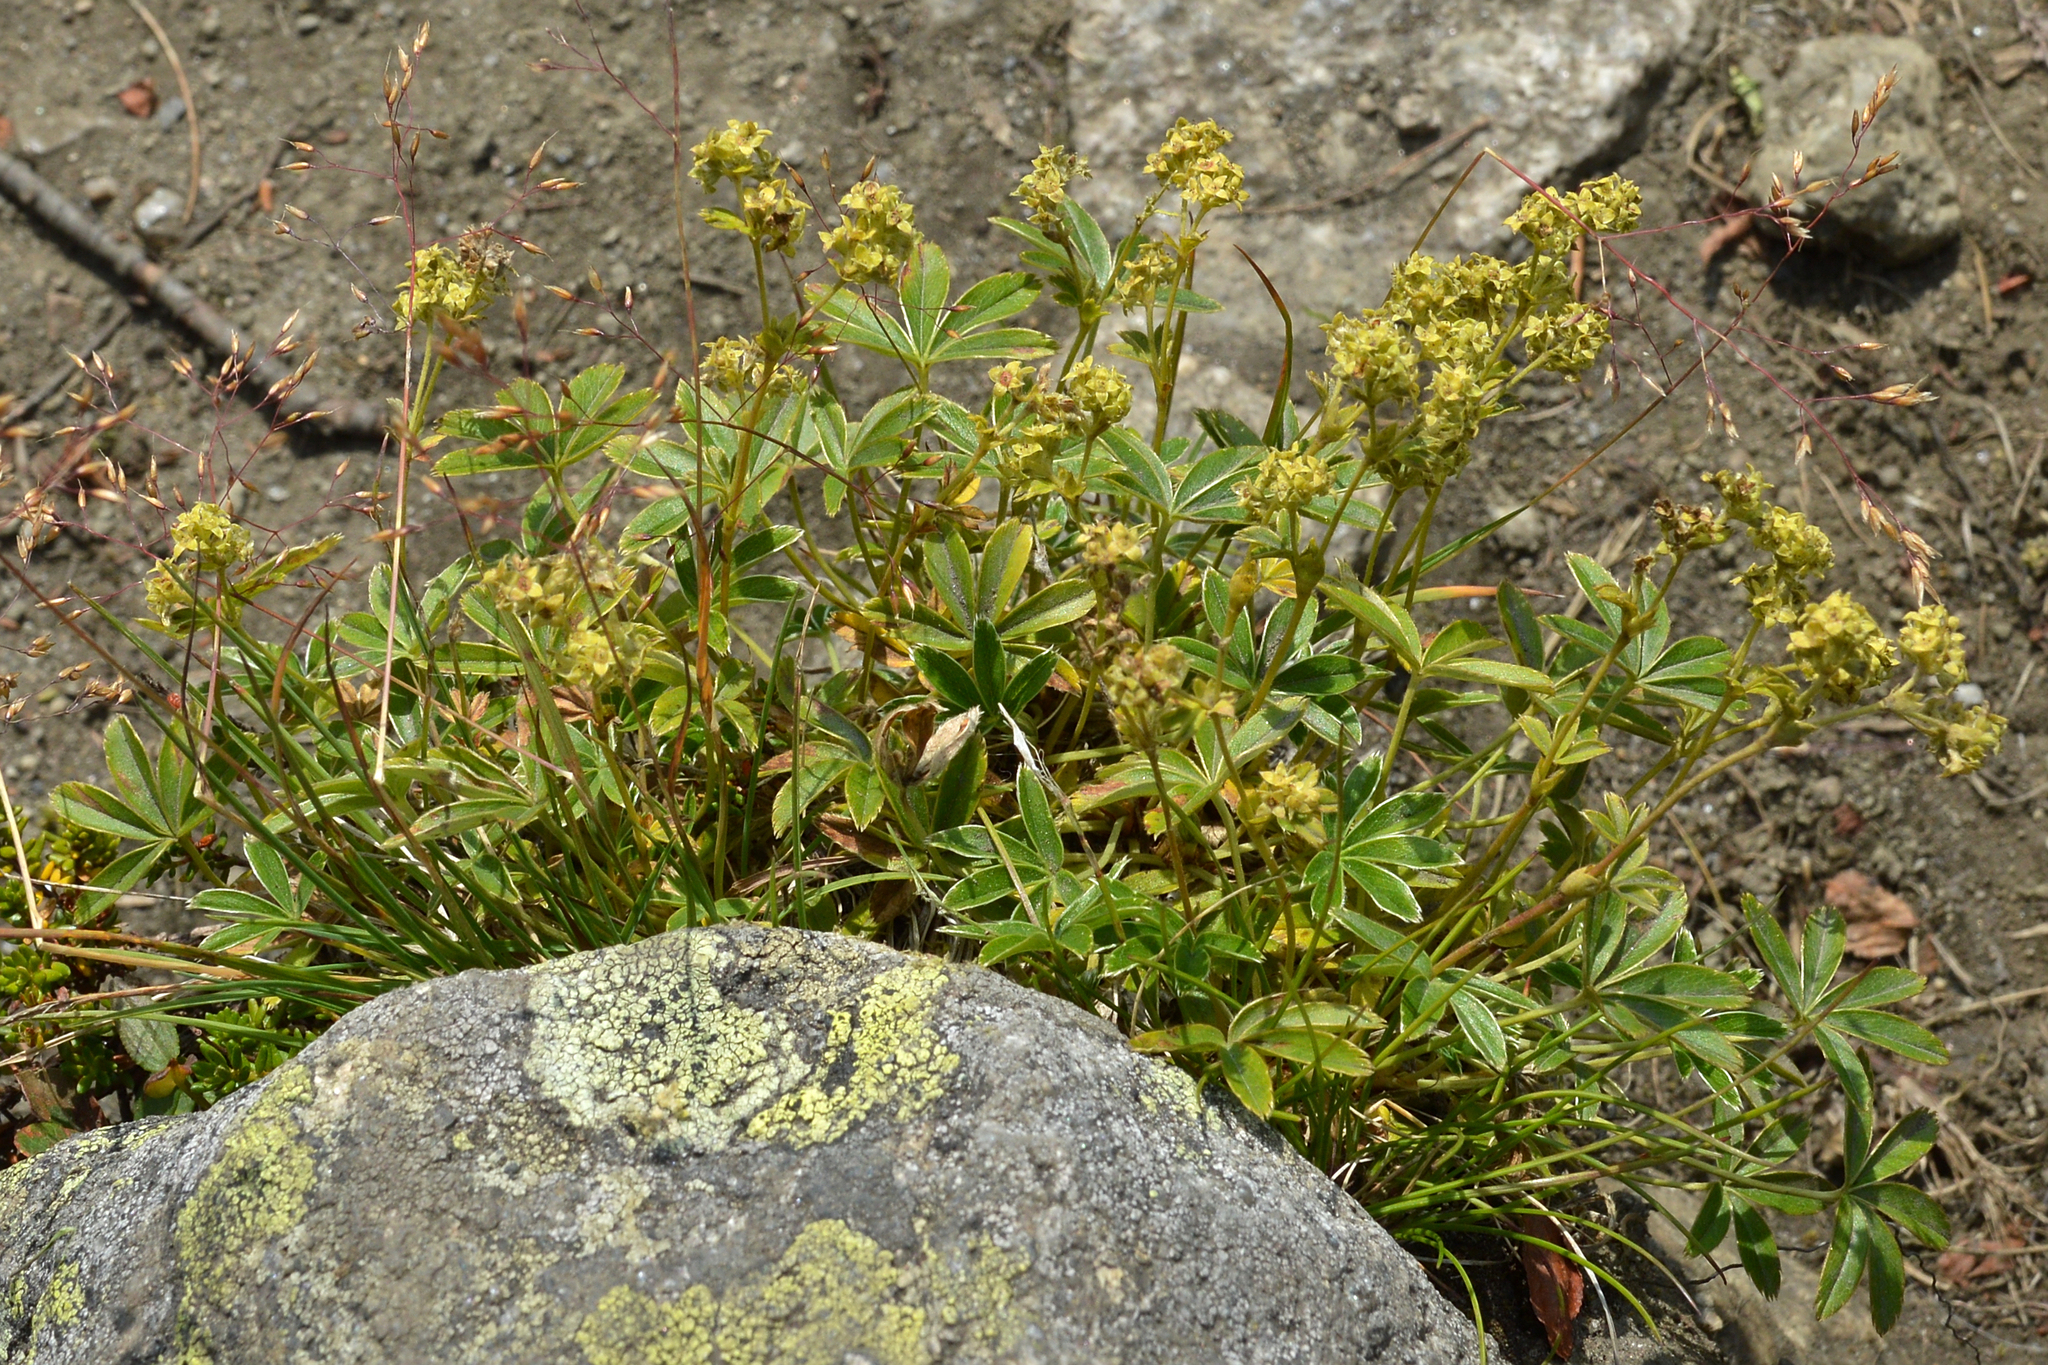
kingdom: Plantae
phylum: Tracheophyta
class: Magnoliopsida
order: Rosales
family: Rosaceae
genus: Alchemilla
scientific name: Alchemilla alpina
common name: Alpine lady's-mantle
